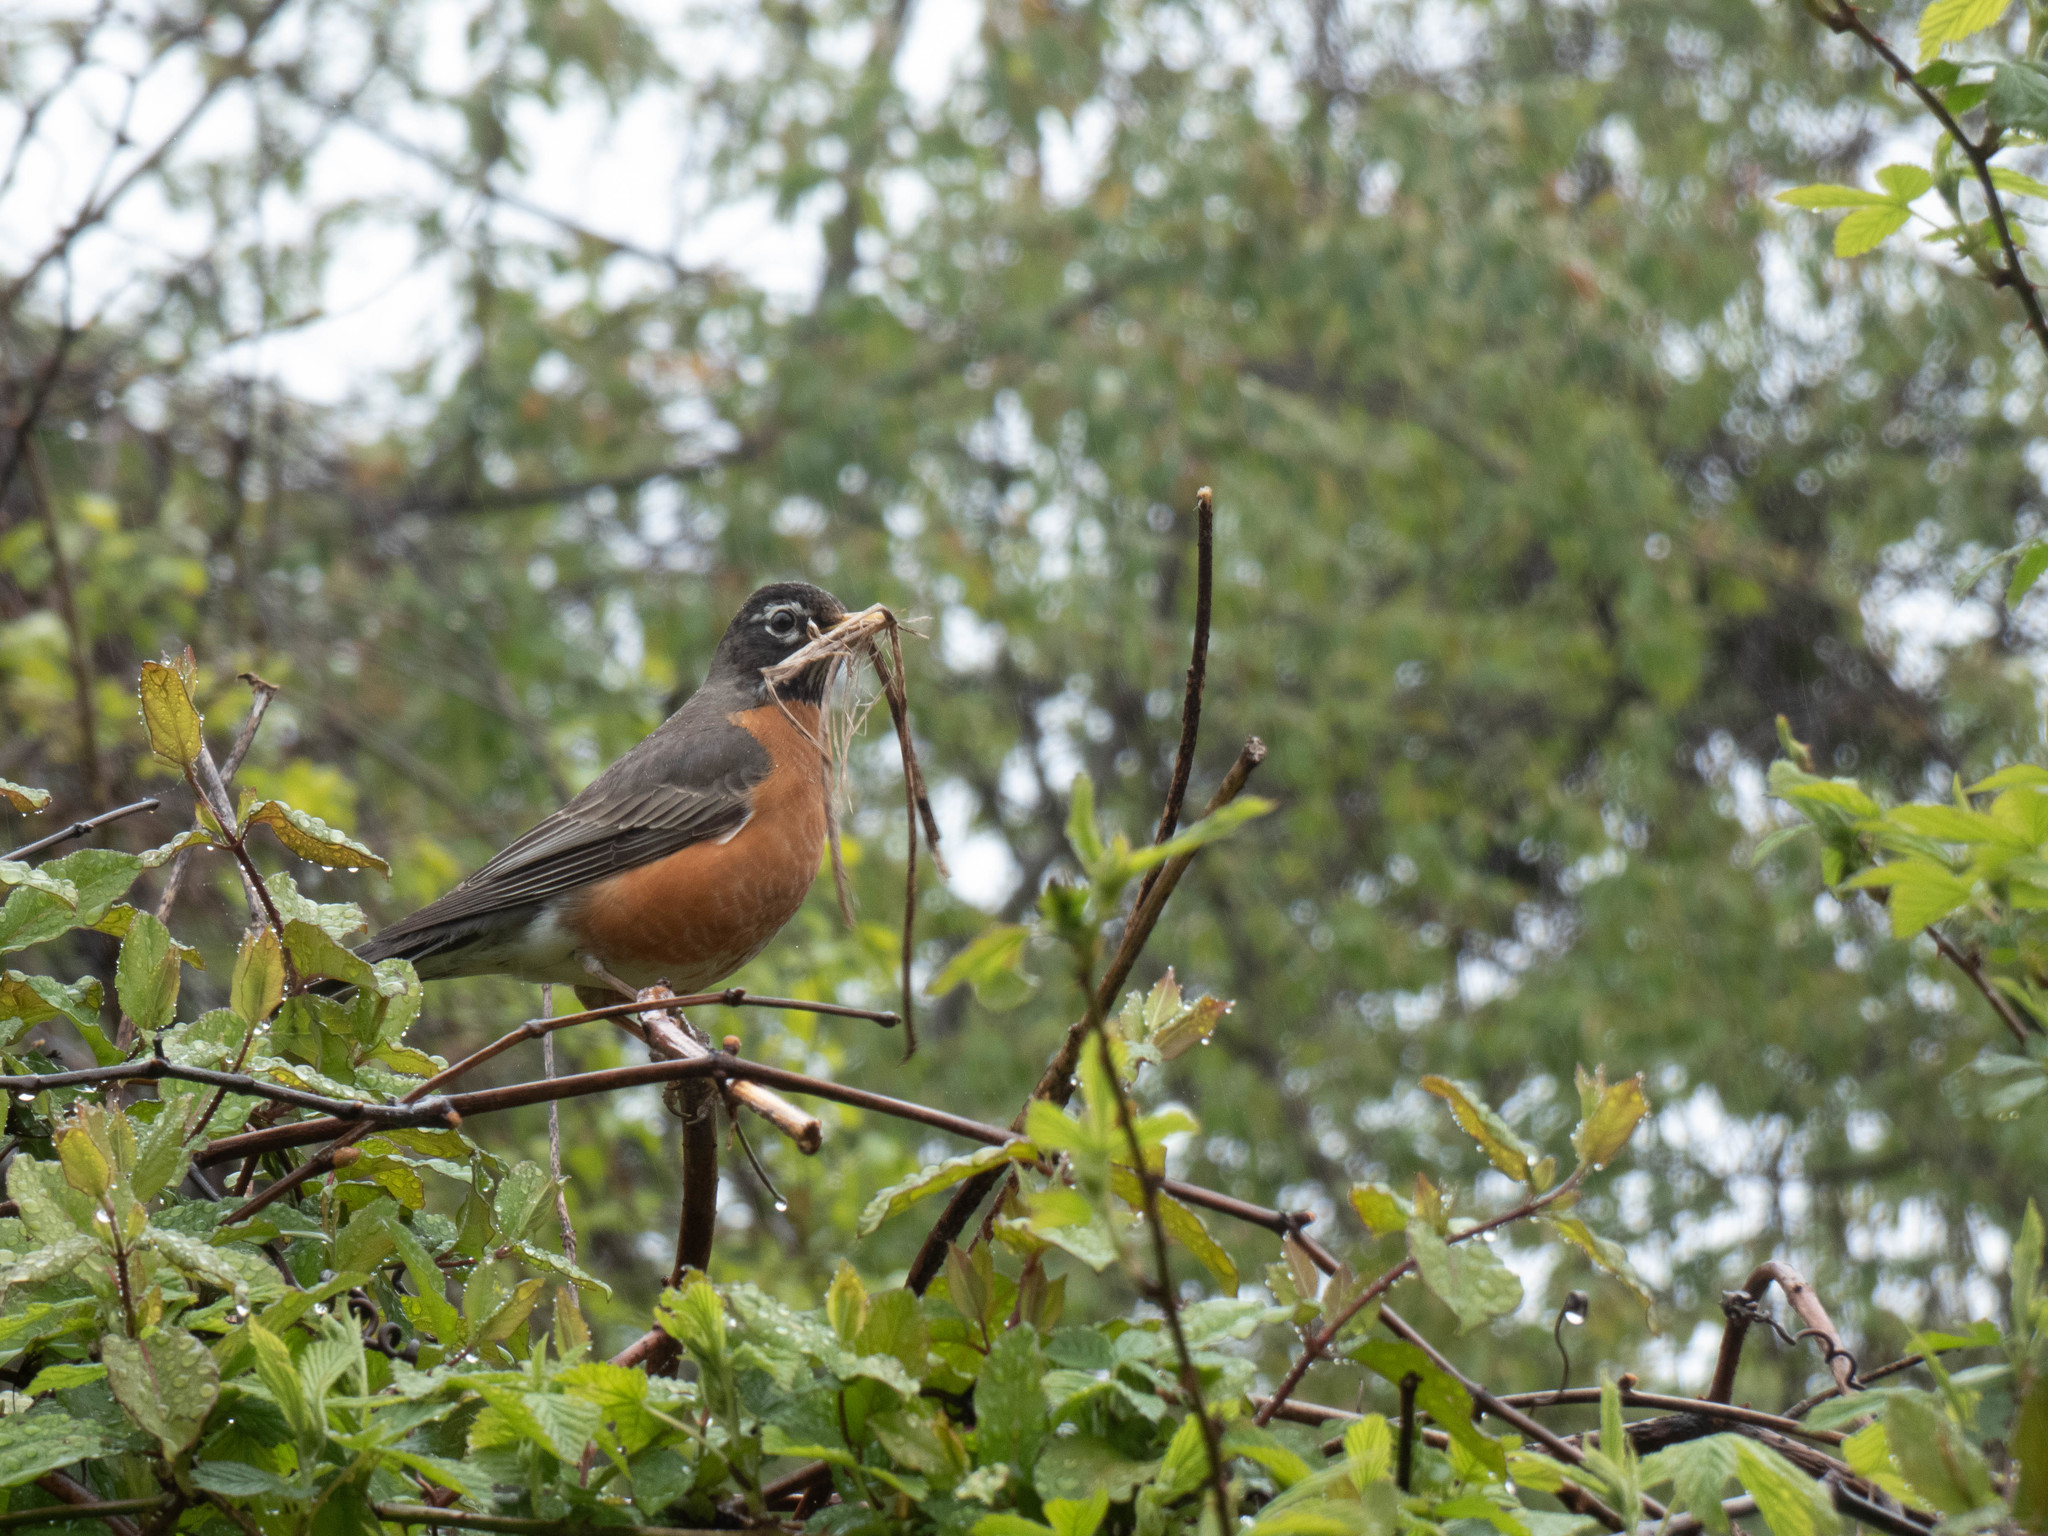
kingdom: Animalia
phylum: Chordata
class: Aves
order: Passeriformes
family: Turdidae
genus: Turdus
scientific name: Turdus migratorius
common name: American robin
